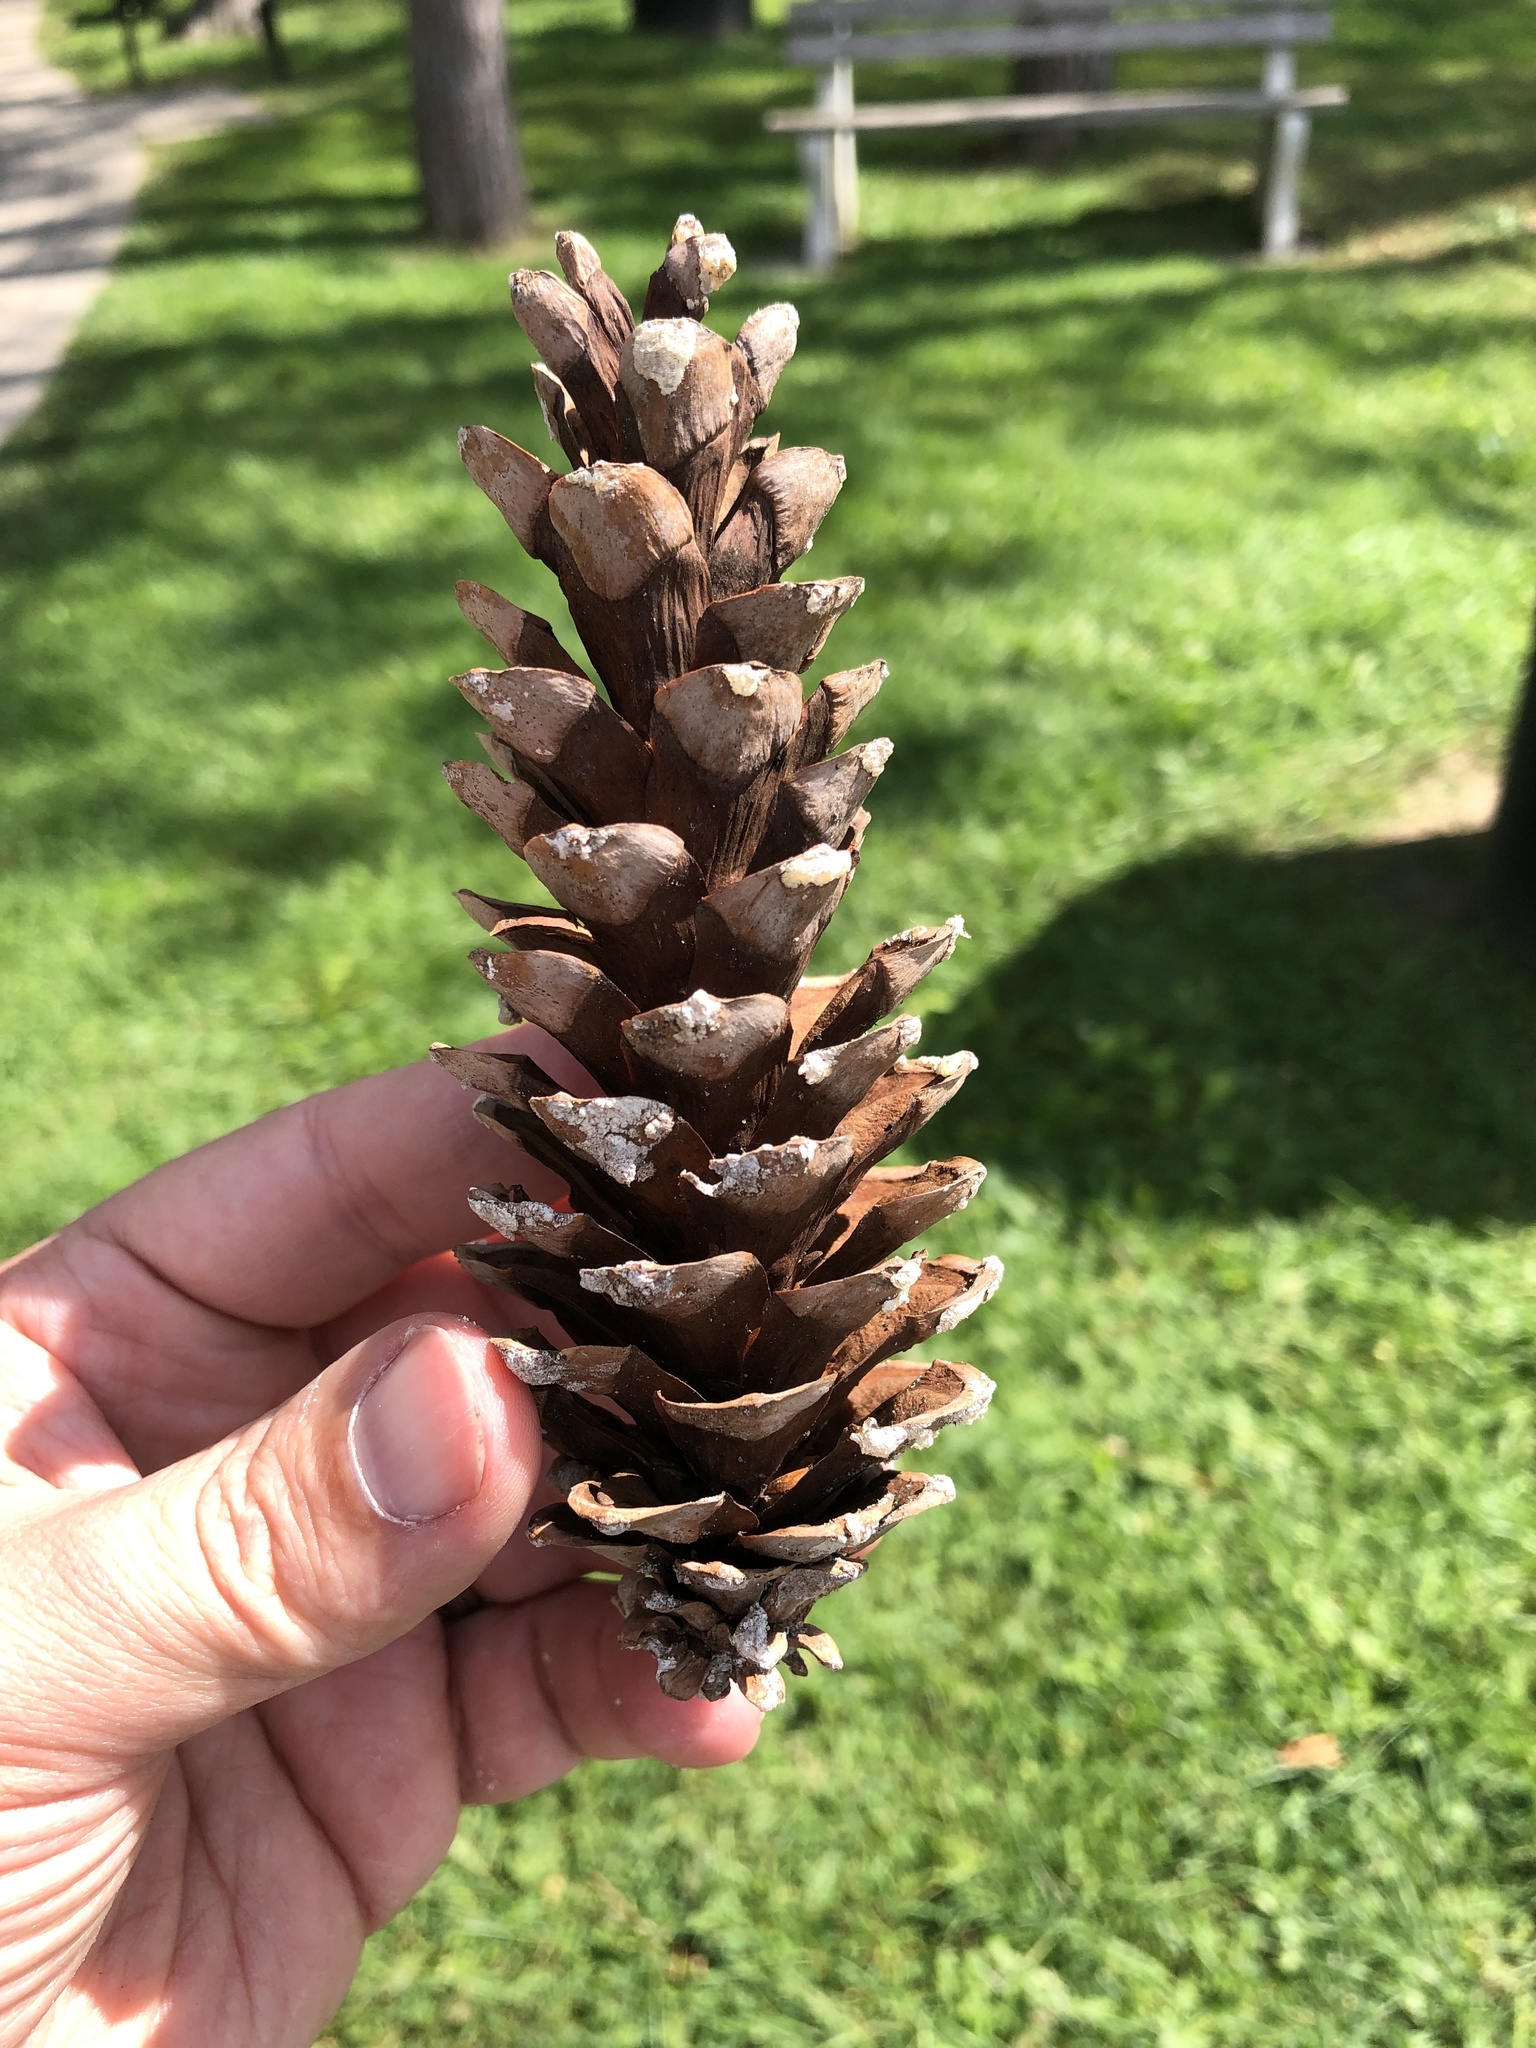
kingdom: Plantae
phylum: Tracheophyta
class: Pinopsida
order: Pinales
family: Pinaceae
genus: Pinus
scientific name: Pinus strobus
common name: Weymouth pine
